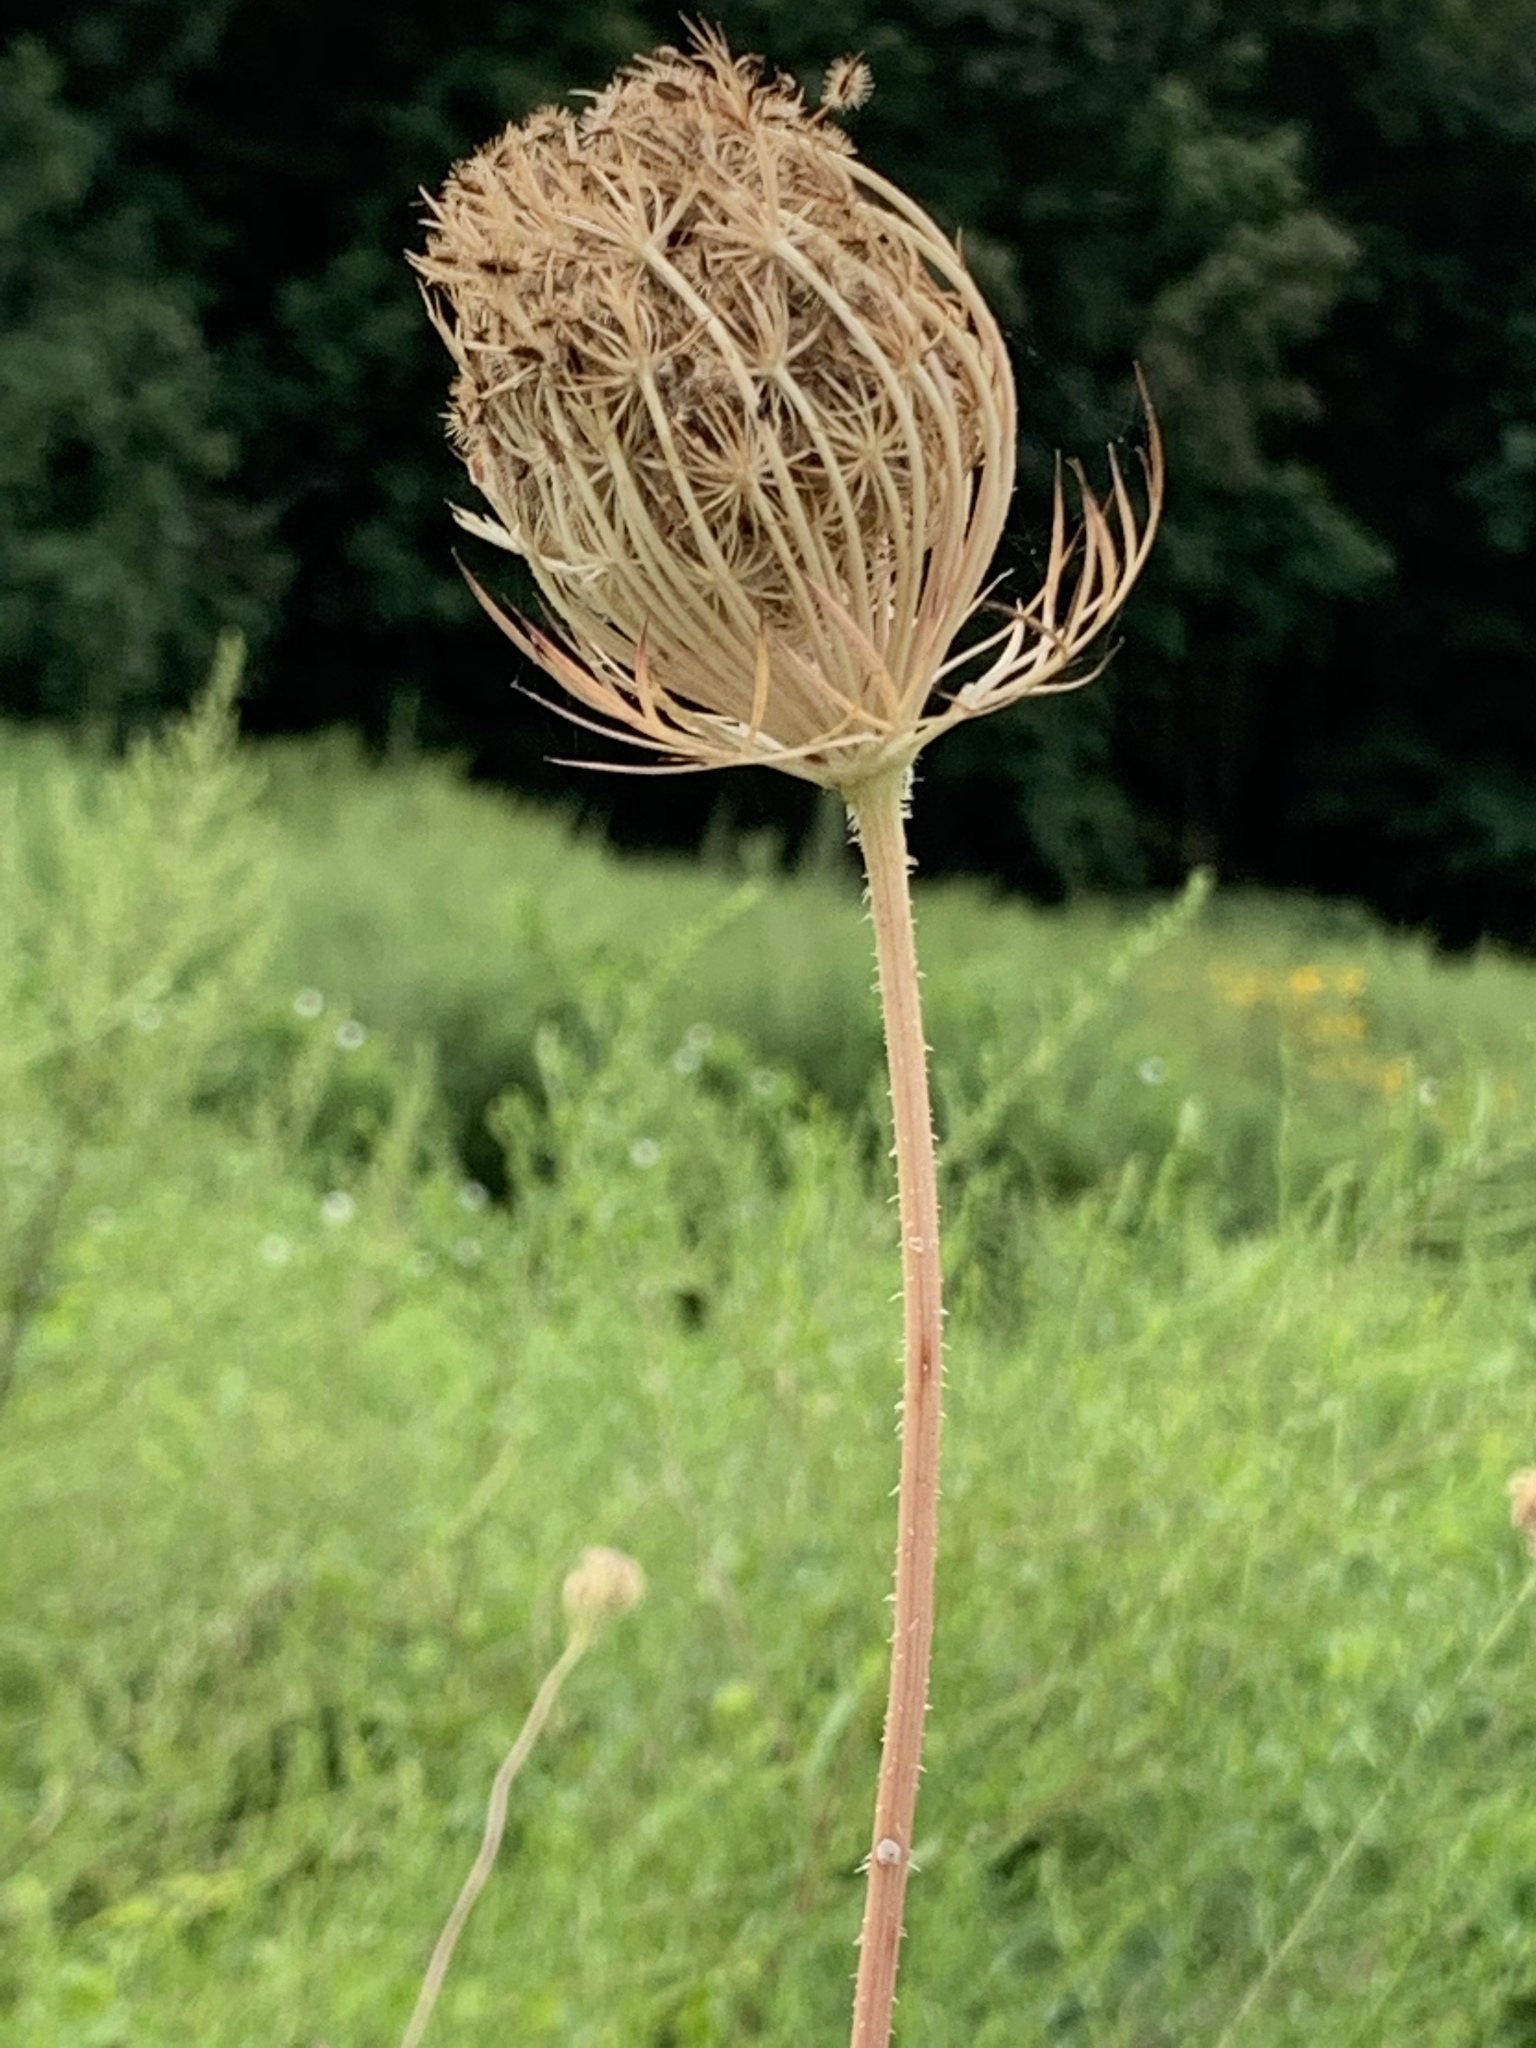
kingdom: Plantae
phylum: Tracheophyta
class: Magnoliopsida
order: Apiales
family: Apiaceae
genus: Daucus
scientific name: Daucus carota
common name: Wild carrot
